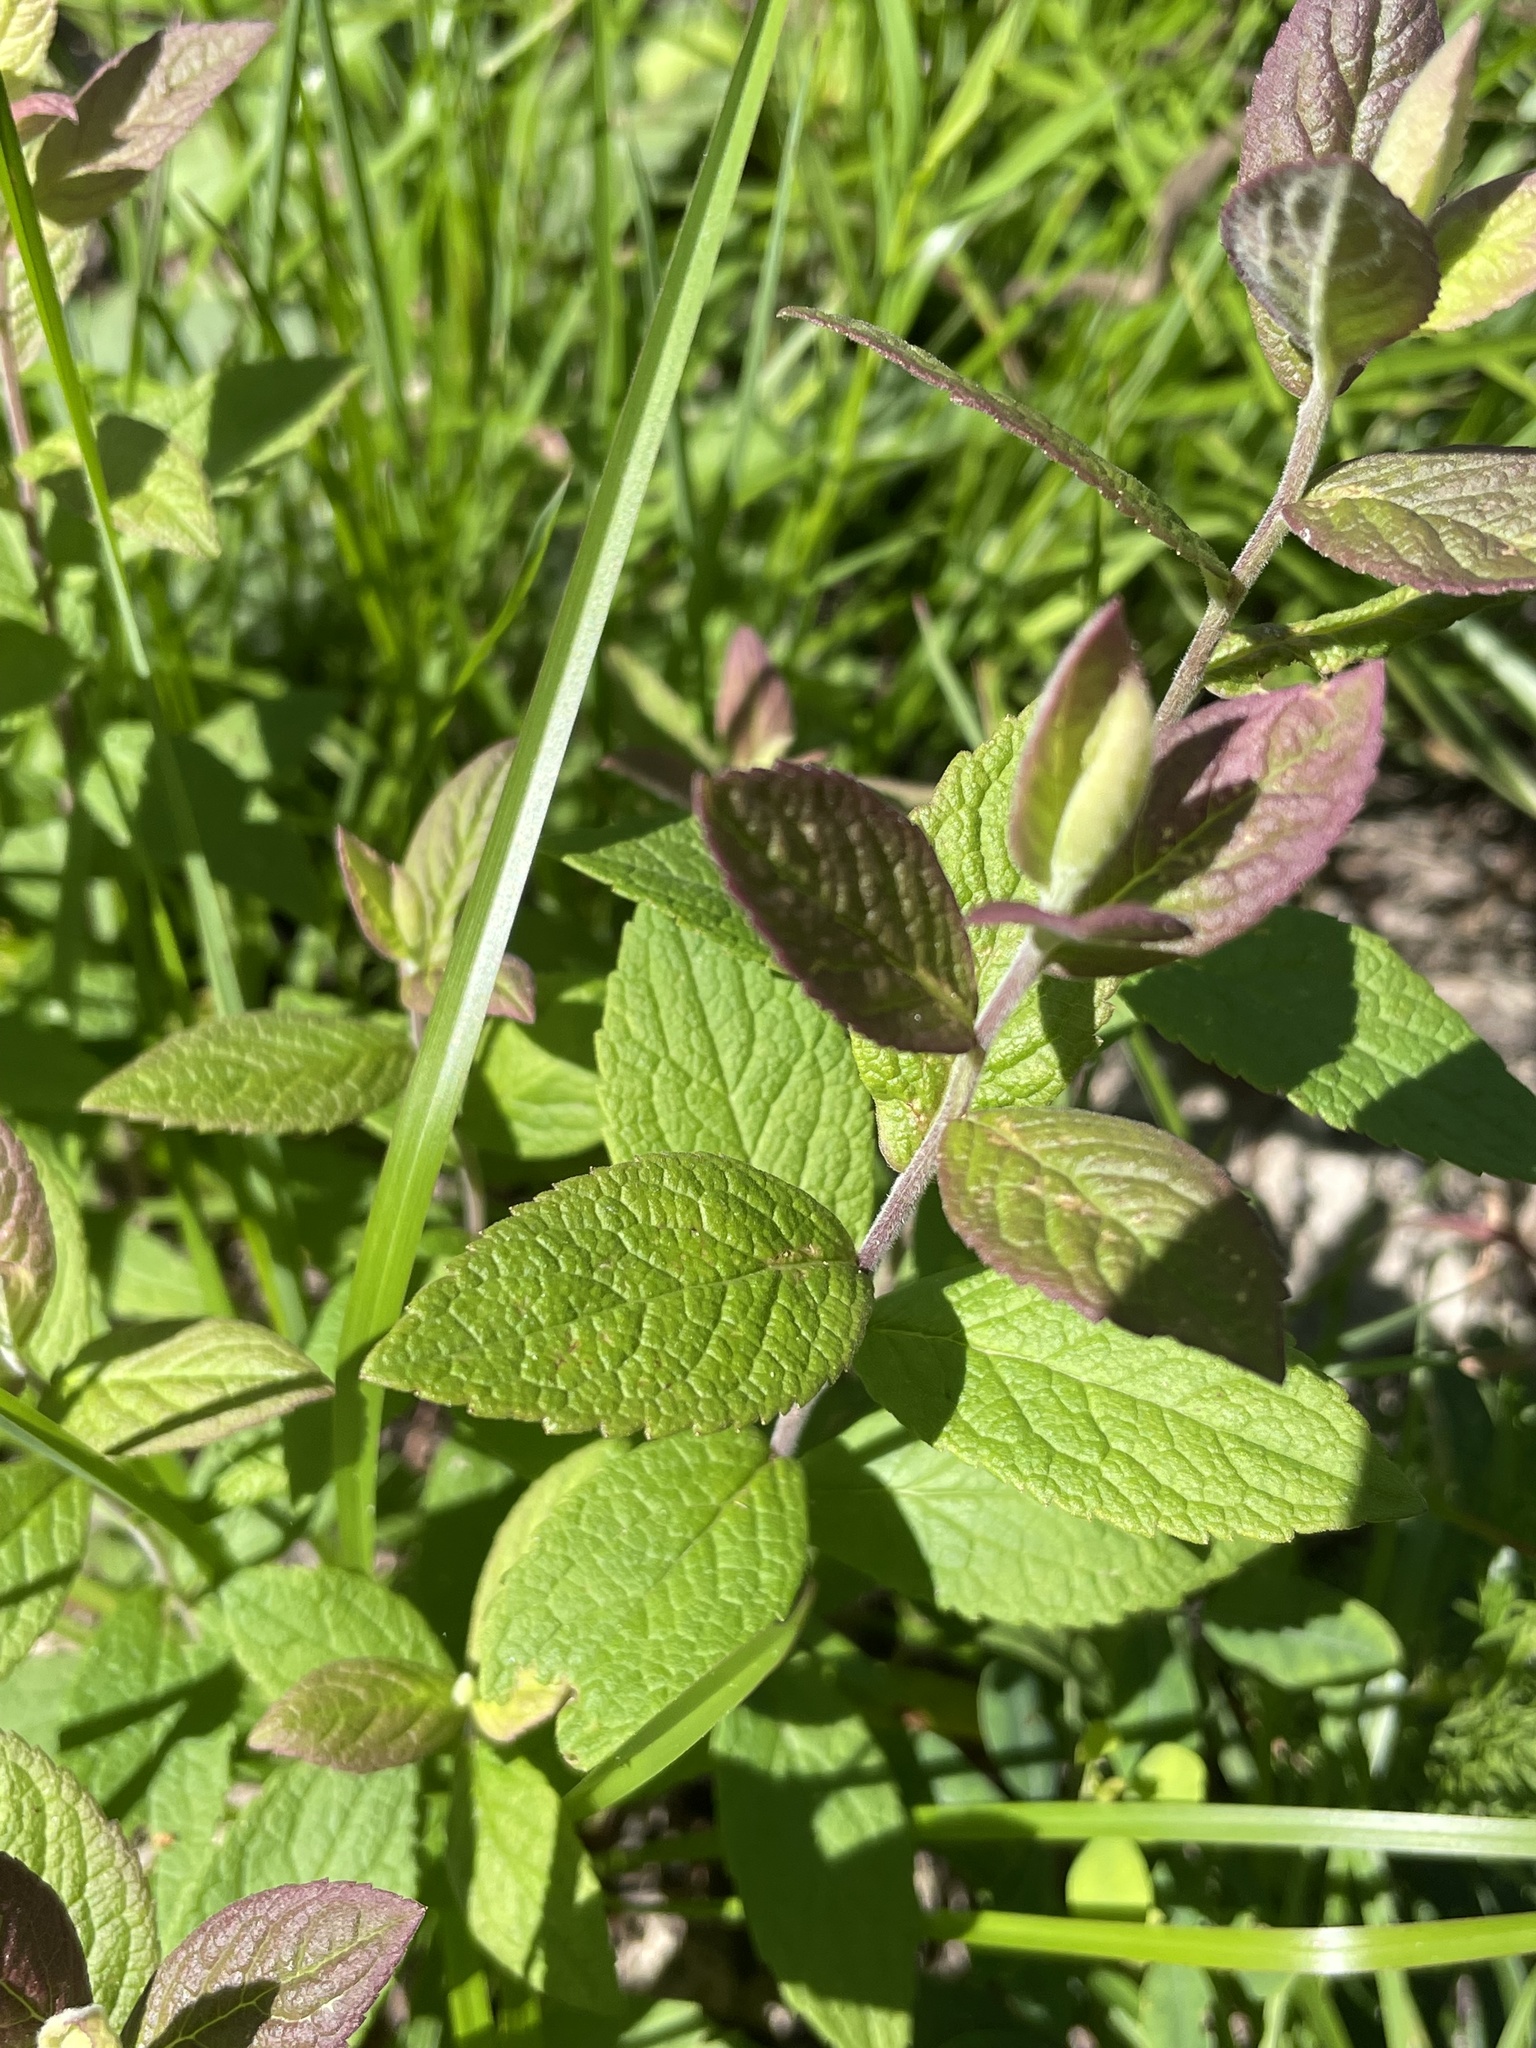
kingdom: Plantae
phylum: Tracheophyta
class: Magnoliopsida
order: Asterales
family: Asteraceae
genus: Solidago
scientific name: Solidago rugosa
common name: Rough-stemmed goldenrod
